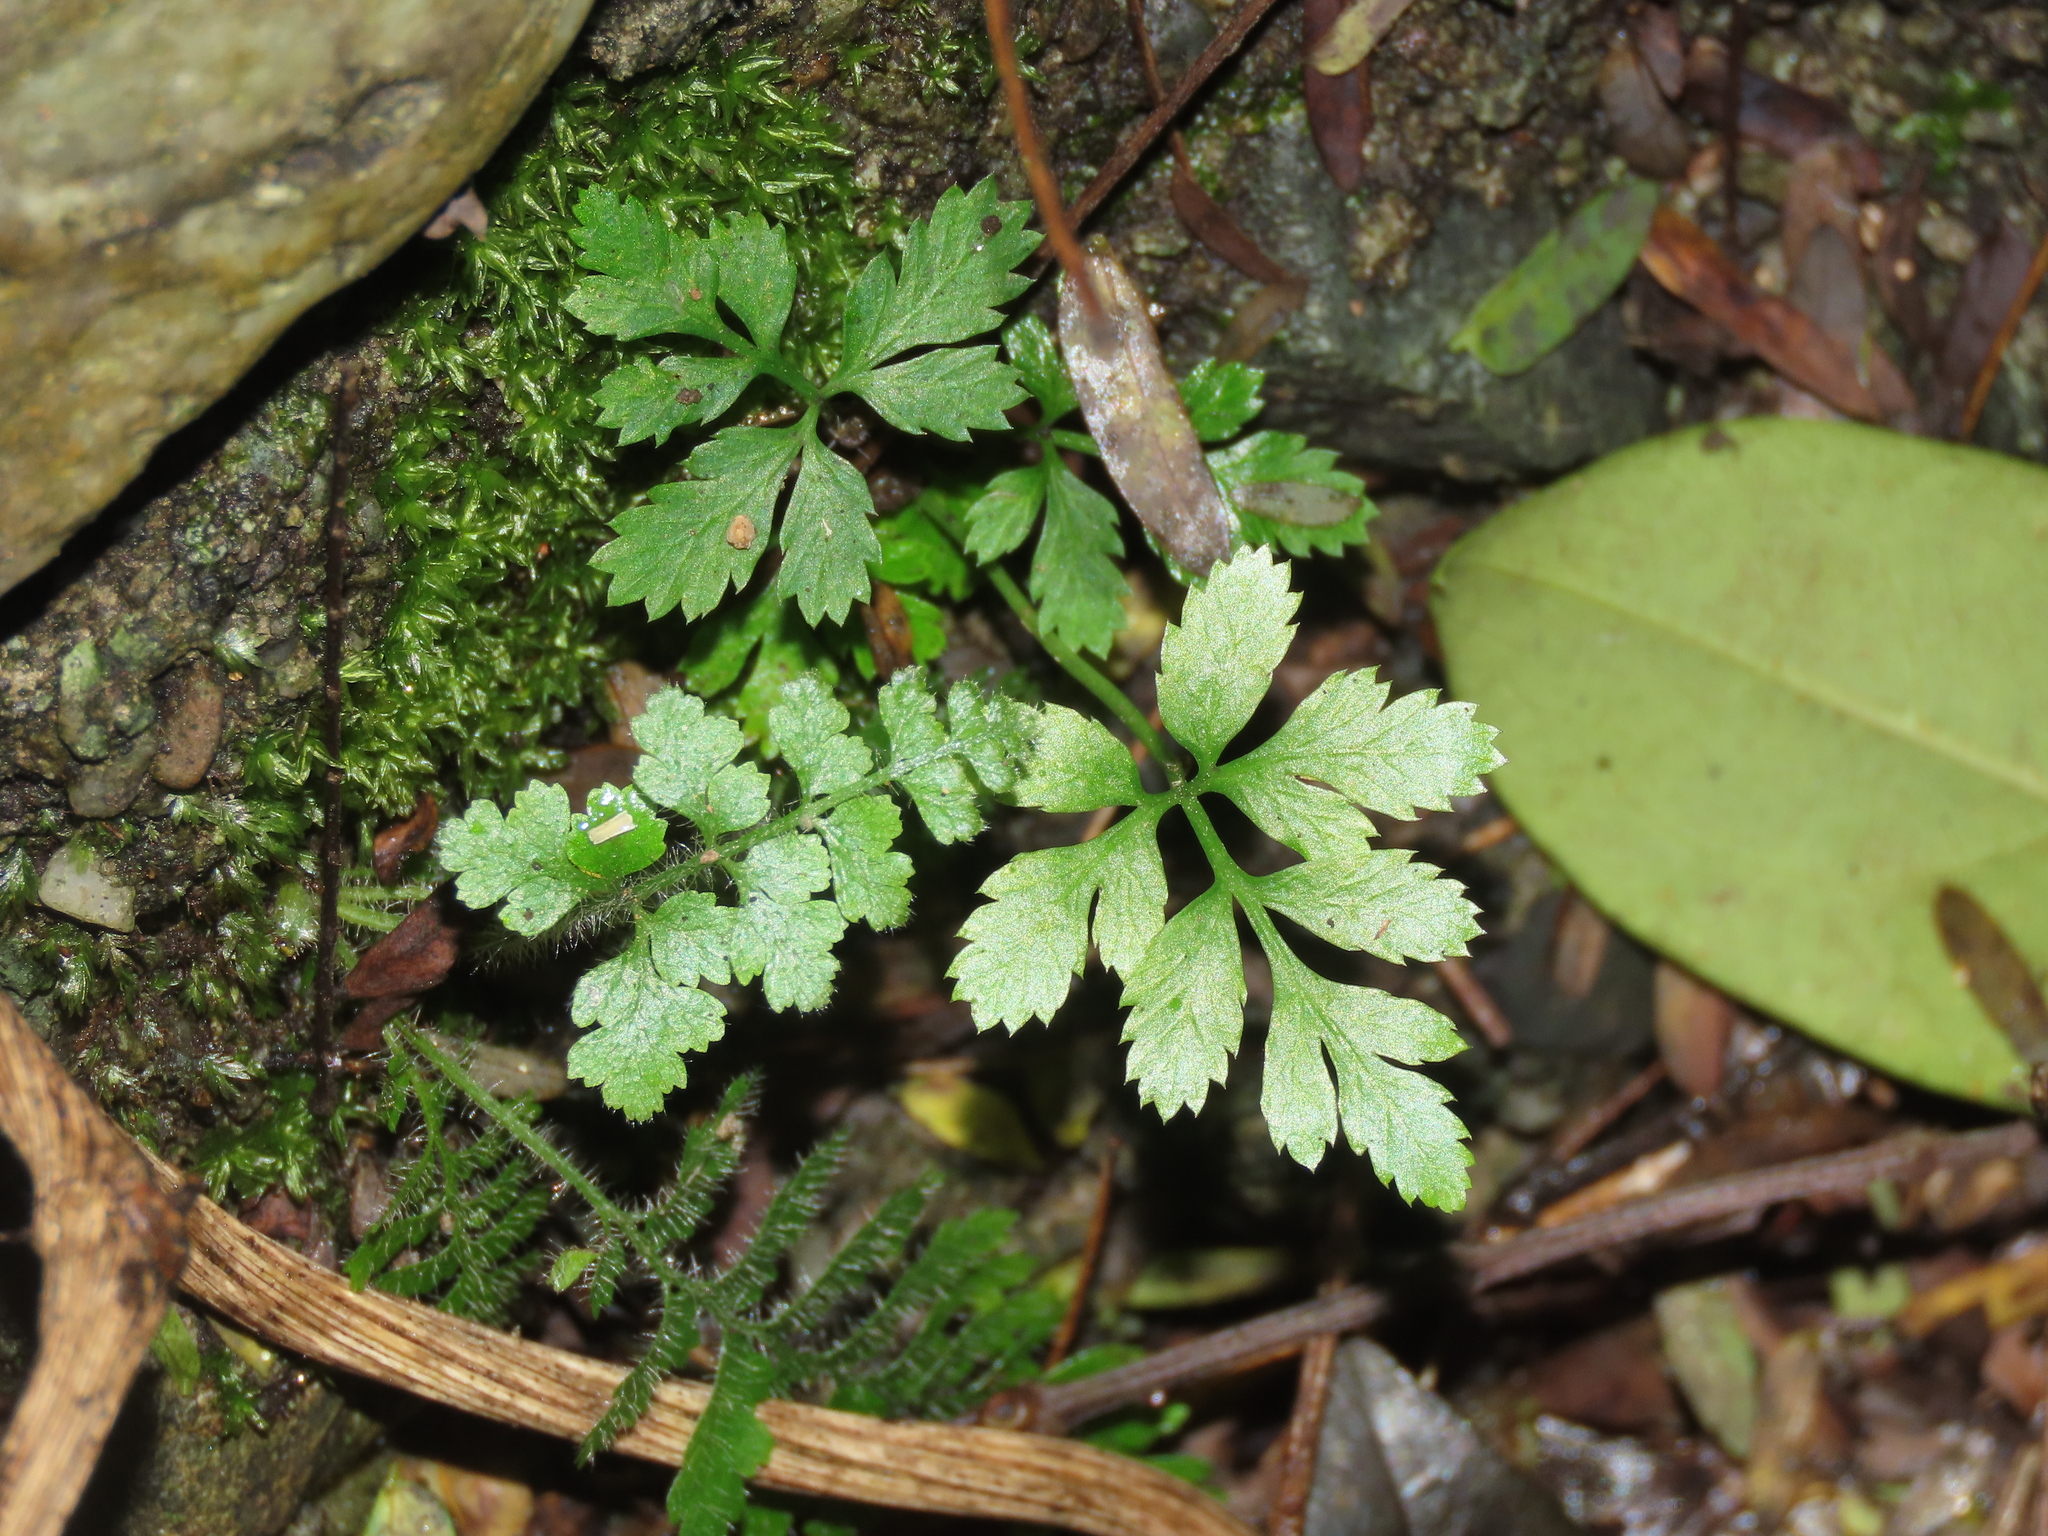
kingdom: Plantae
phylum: Tracheophyta
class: Polypodiopsida
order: Polypodiales
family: Pteridaceae
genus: Pteris
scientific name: Pteris ensiformis
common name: Sword brake
